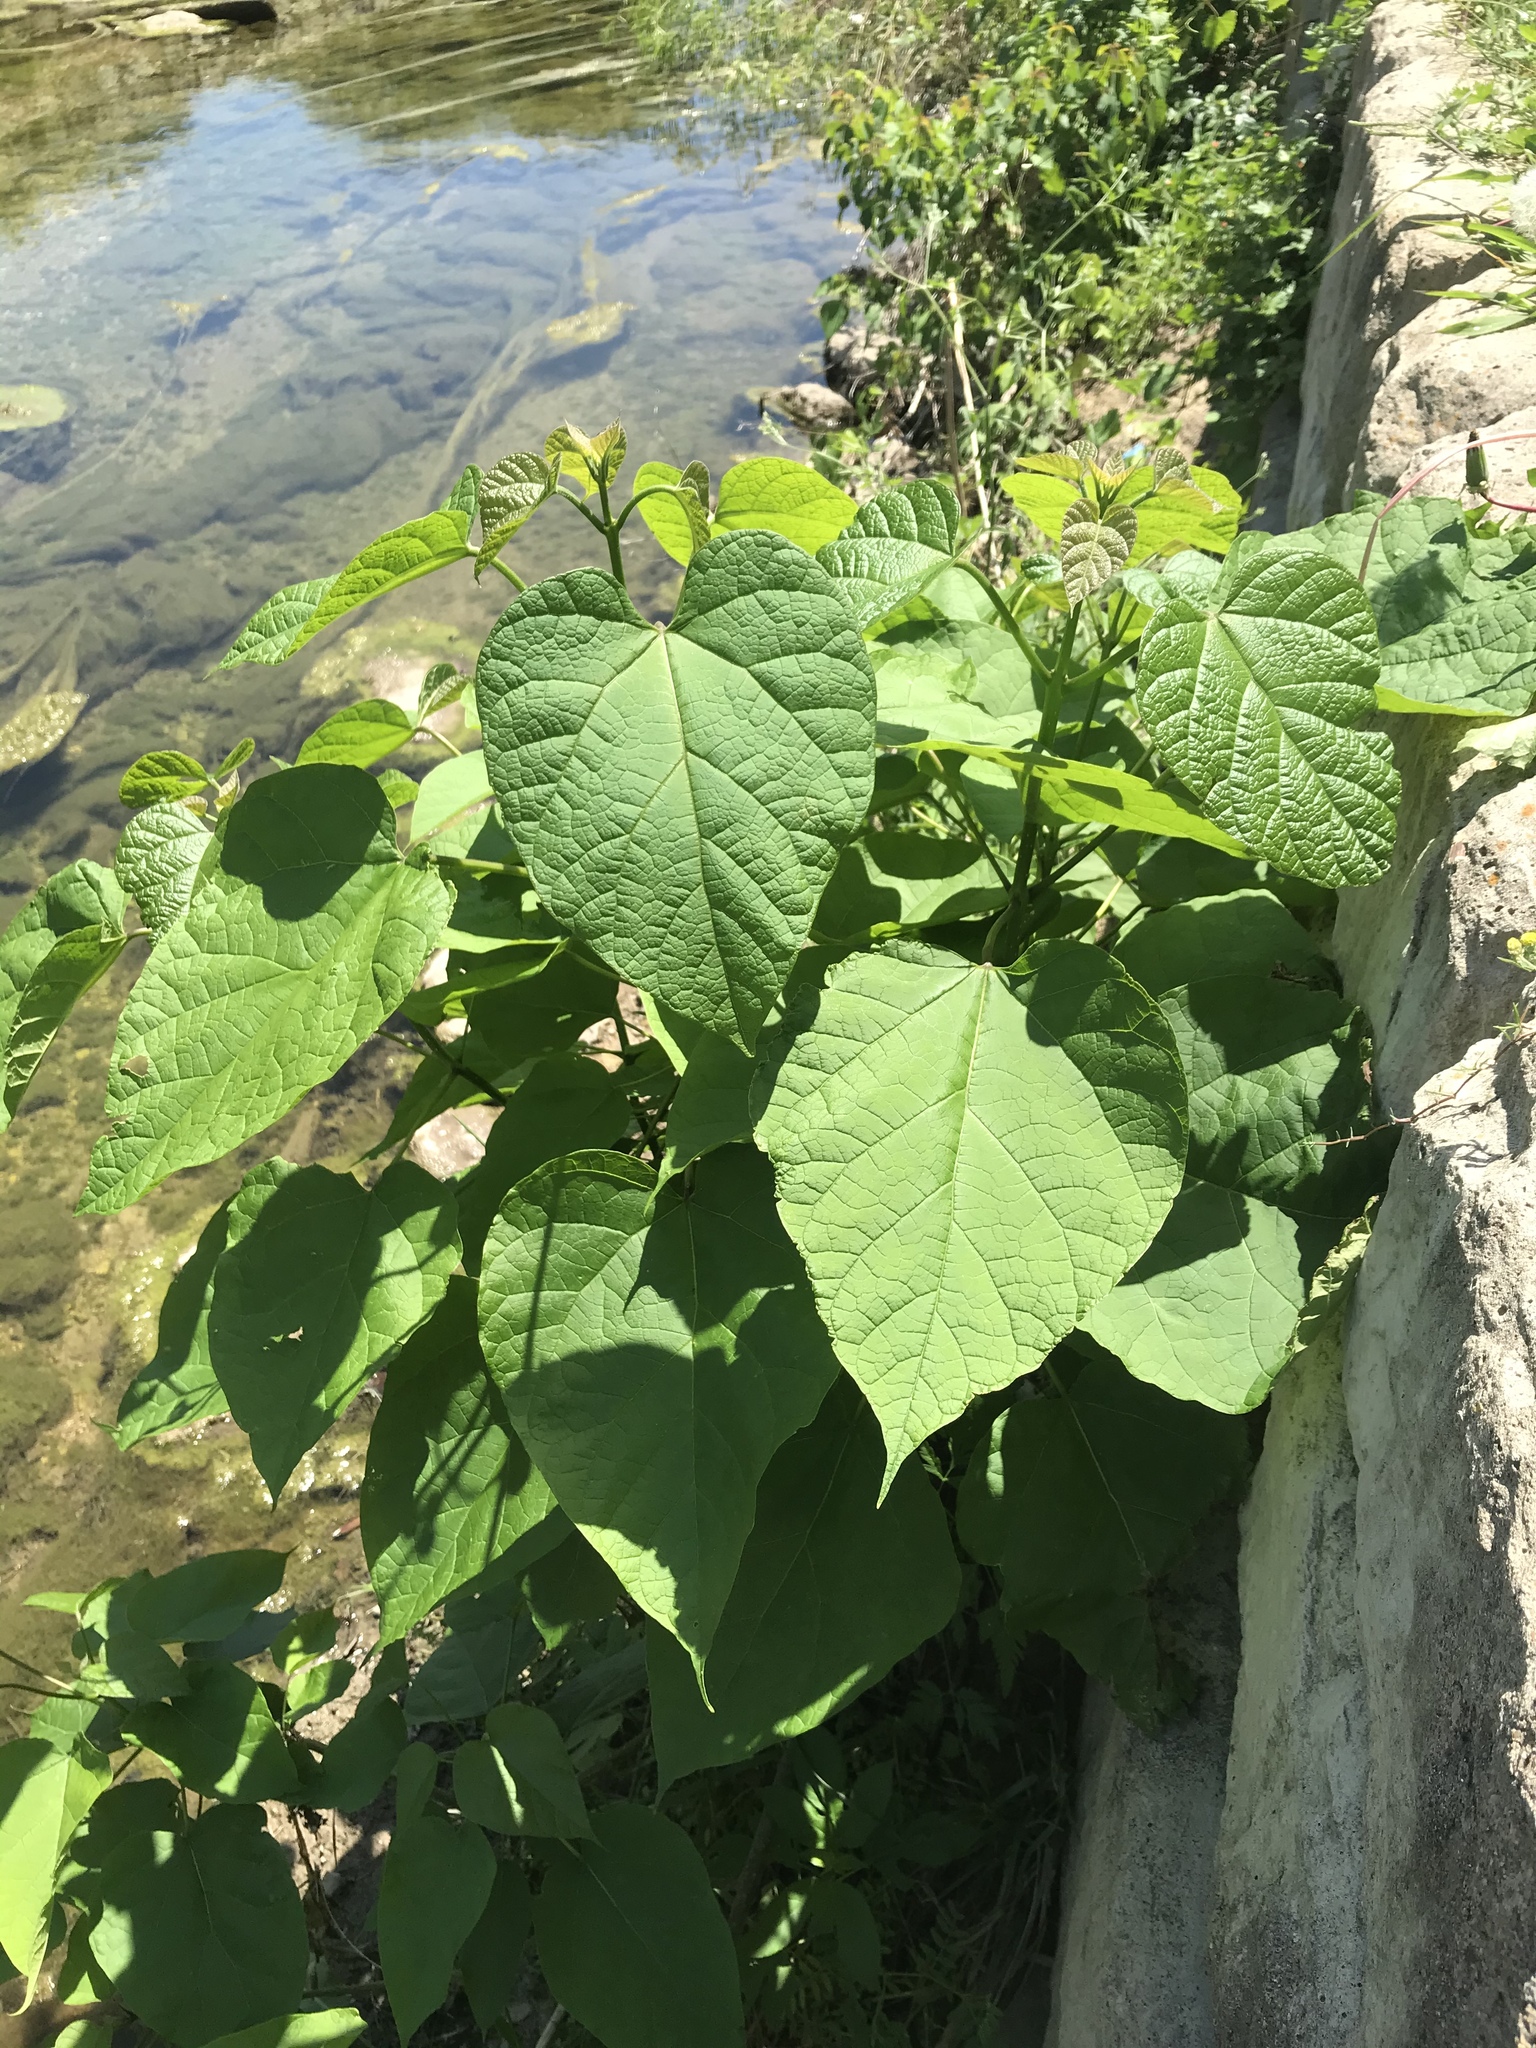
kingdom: Plantae
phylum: Tracheophyta
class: Magnoliopsida
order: Lamiales
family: Bignoniaceae
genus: Catalpa
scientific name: Catalpa bignonioides
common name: Southern catalpa
